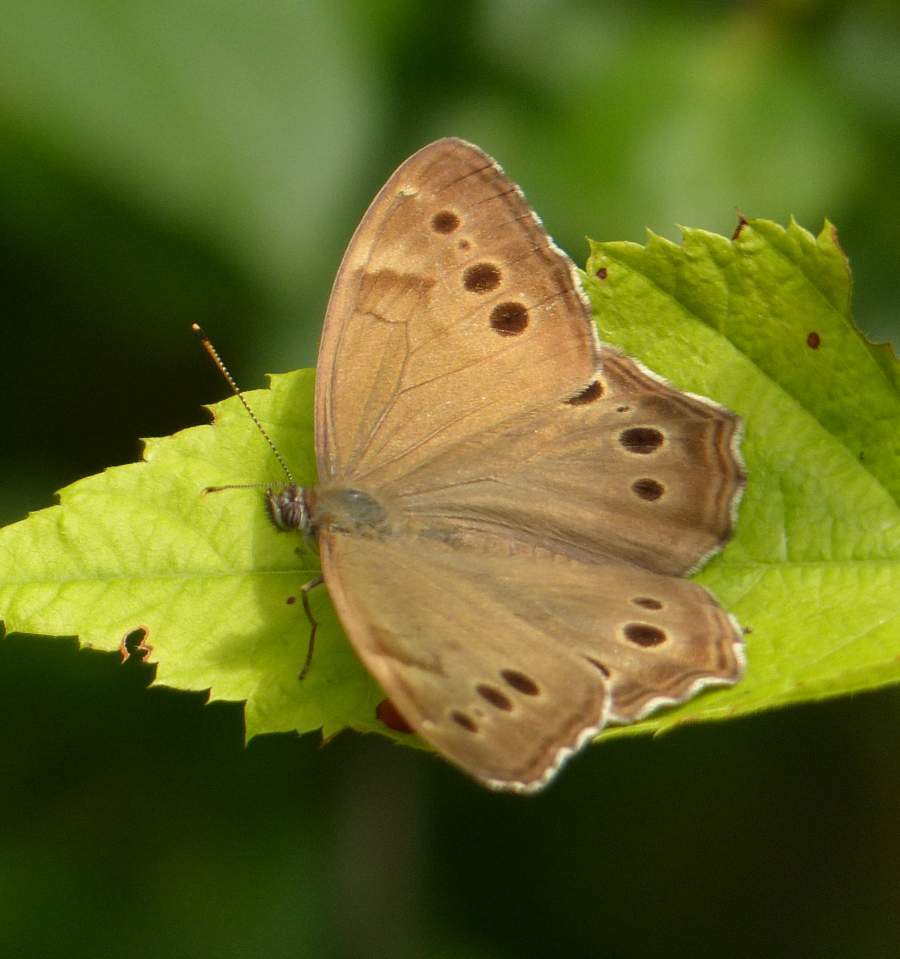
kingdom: Animalia
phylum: Arthropoda
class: Insecta
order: Lepidoptera
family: Nymphalidae
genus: Lethe
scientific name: Lethe anthedon
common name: Northern pearly-eye
